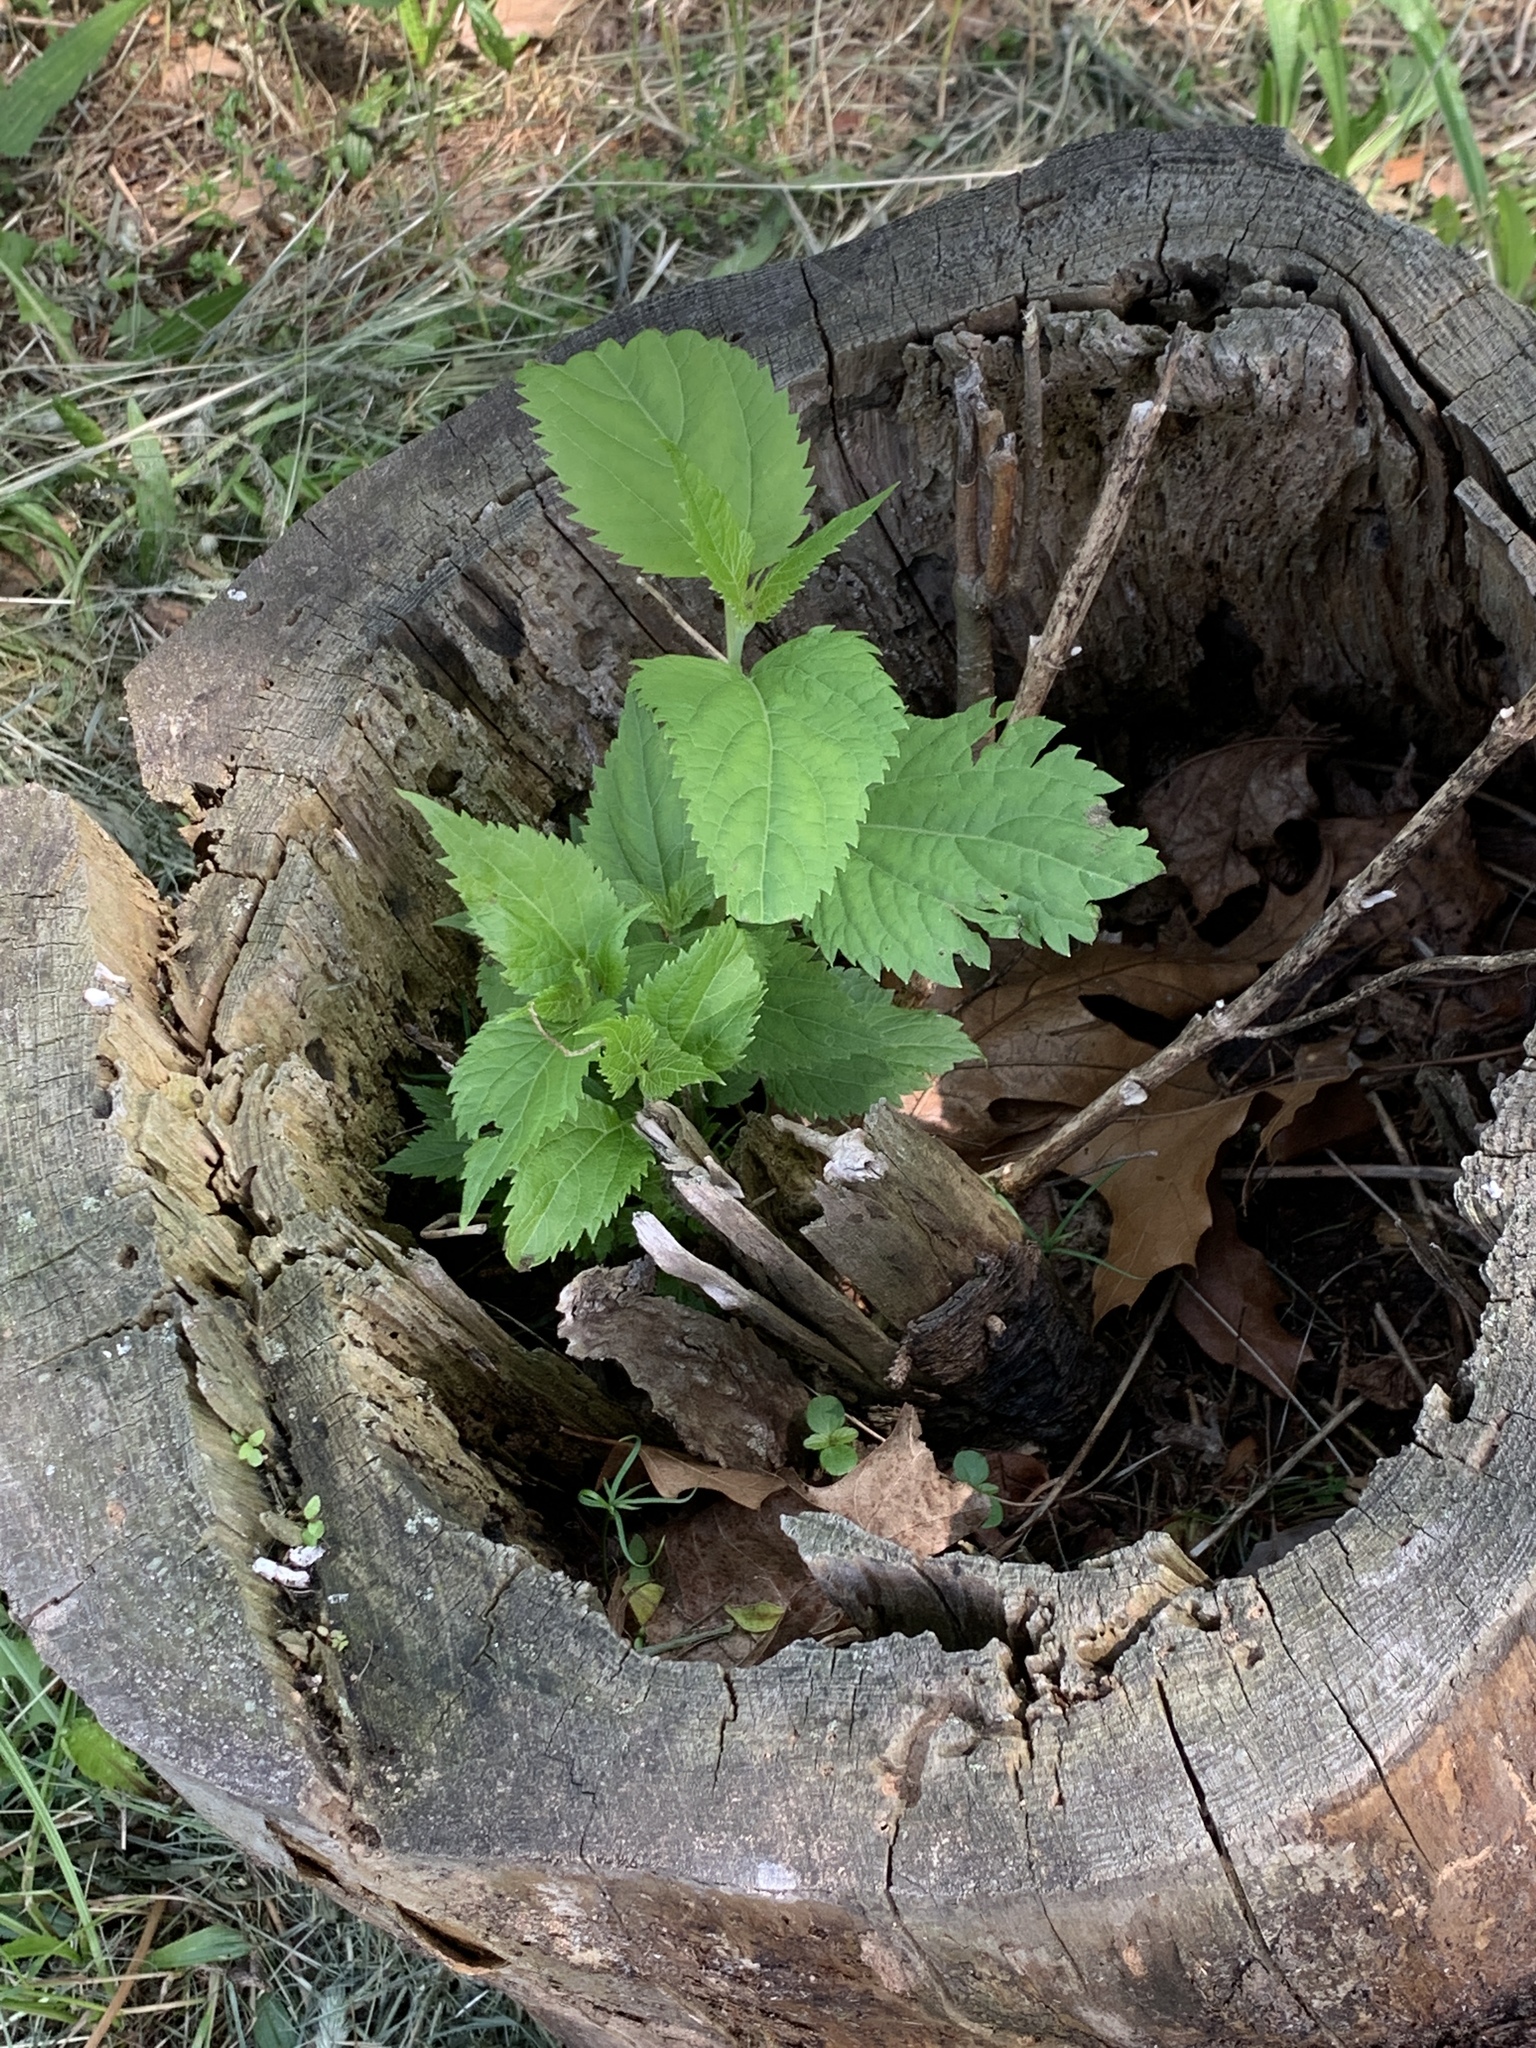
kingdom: Plantae
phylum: Tracheophyta
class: Magnoliopsida
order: Asterales
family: Asteraceae
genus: Ageratina
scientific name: Ageratina altissima
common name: White snakeroot
